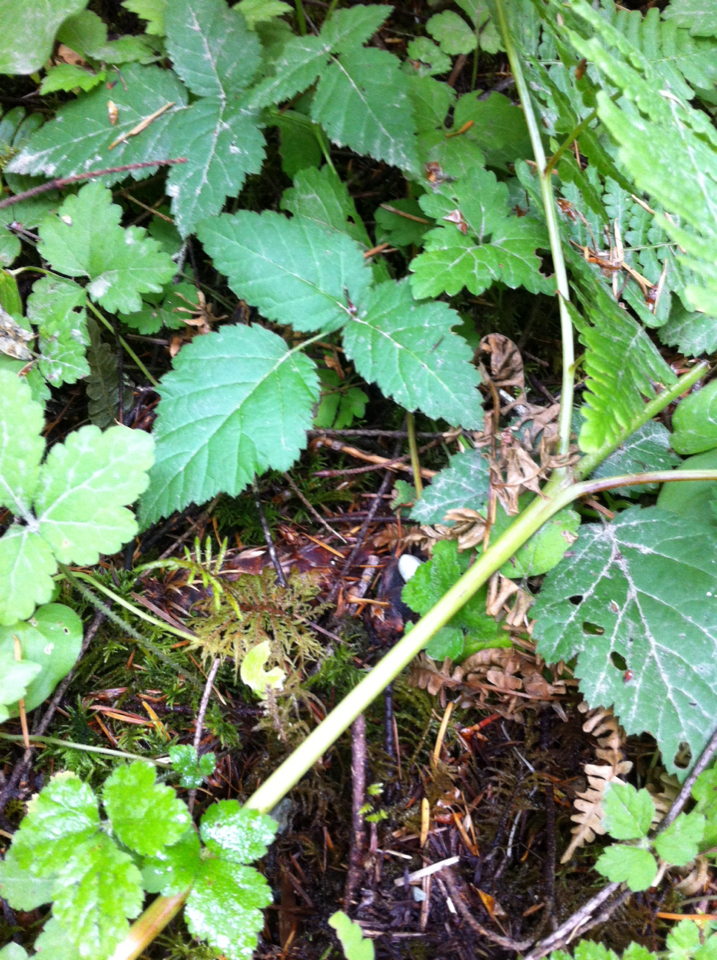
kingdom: Plantae
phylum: Tracheophyta
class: Magnoliopsida
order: Rosales
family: Rosaceae
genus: Rubus
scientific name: Rubus ursinus
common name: Pacific blackberry
